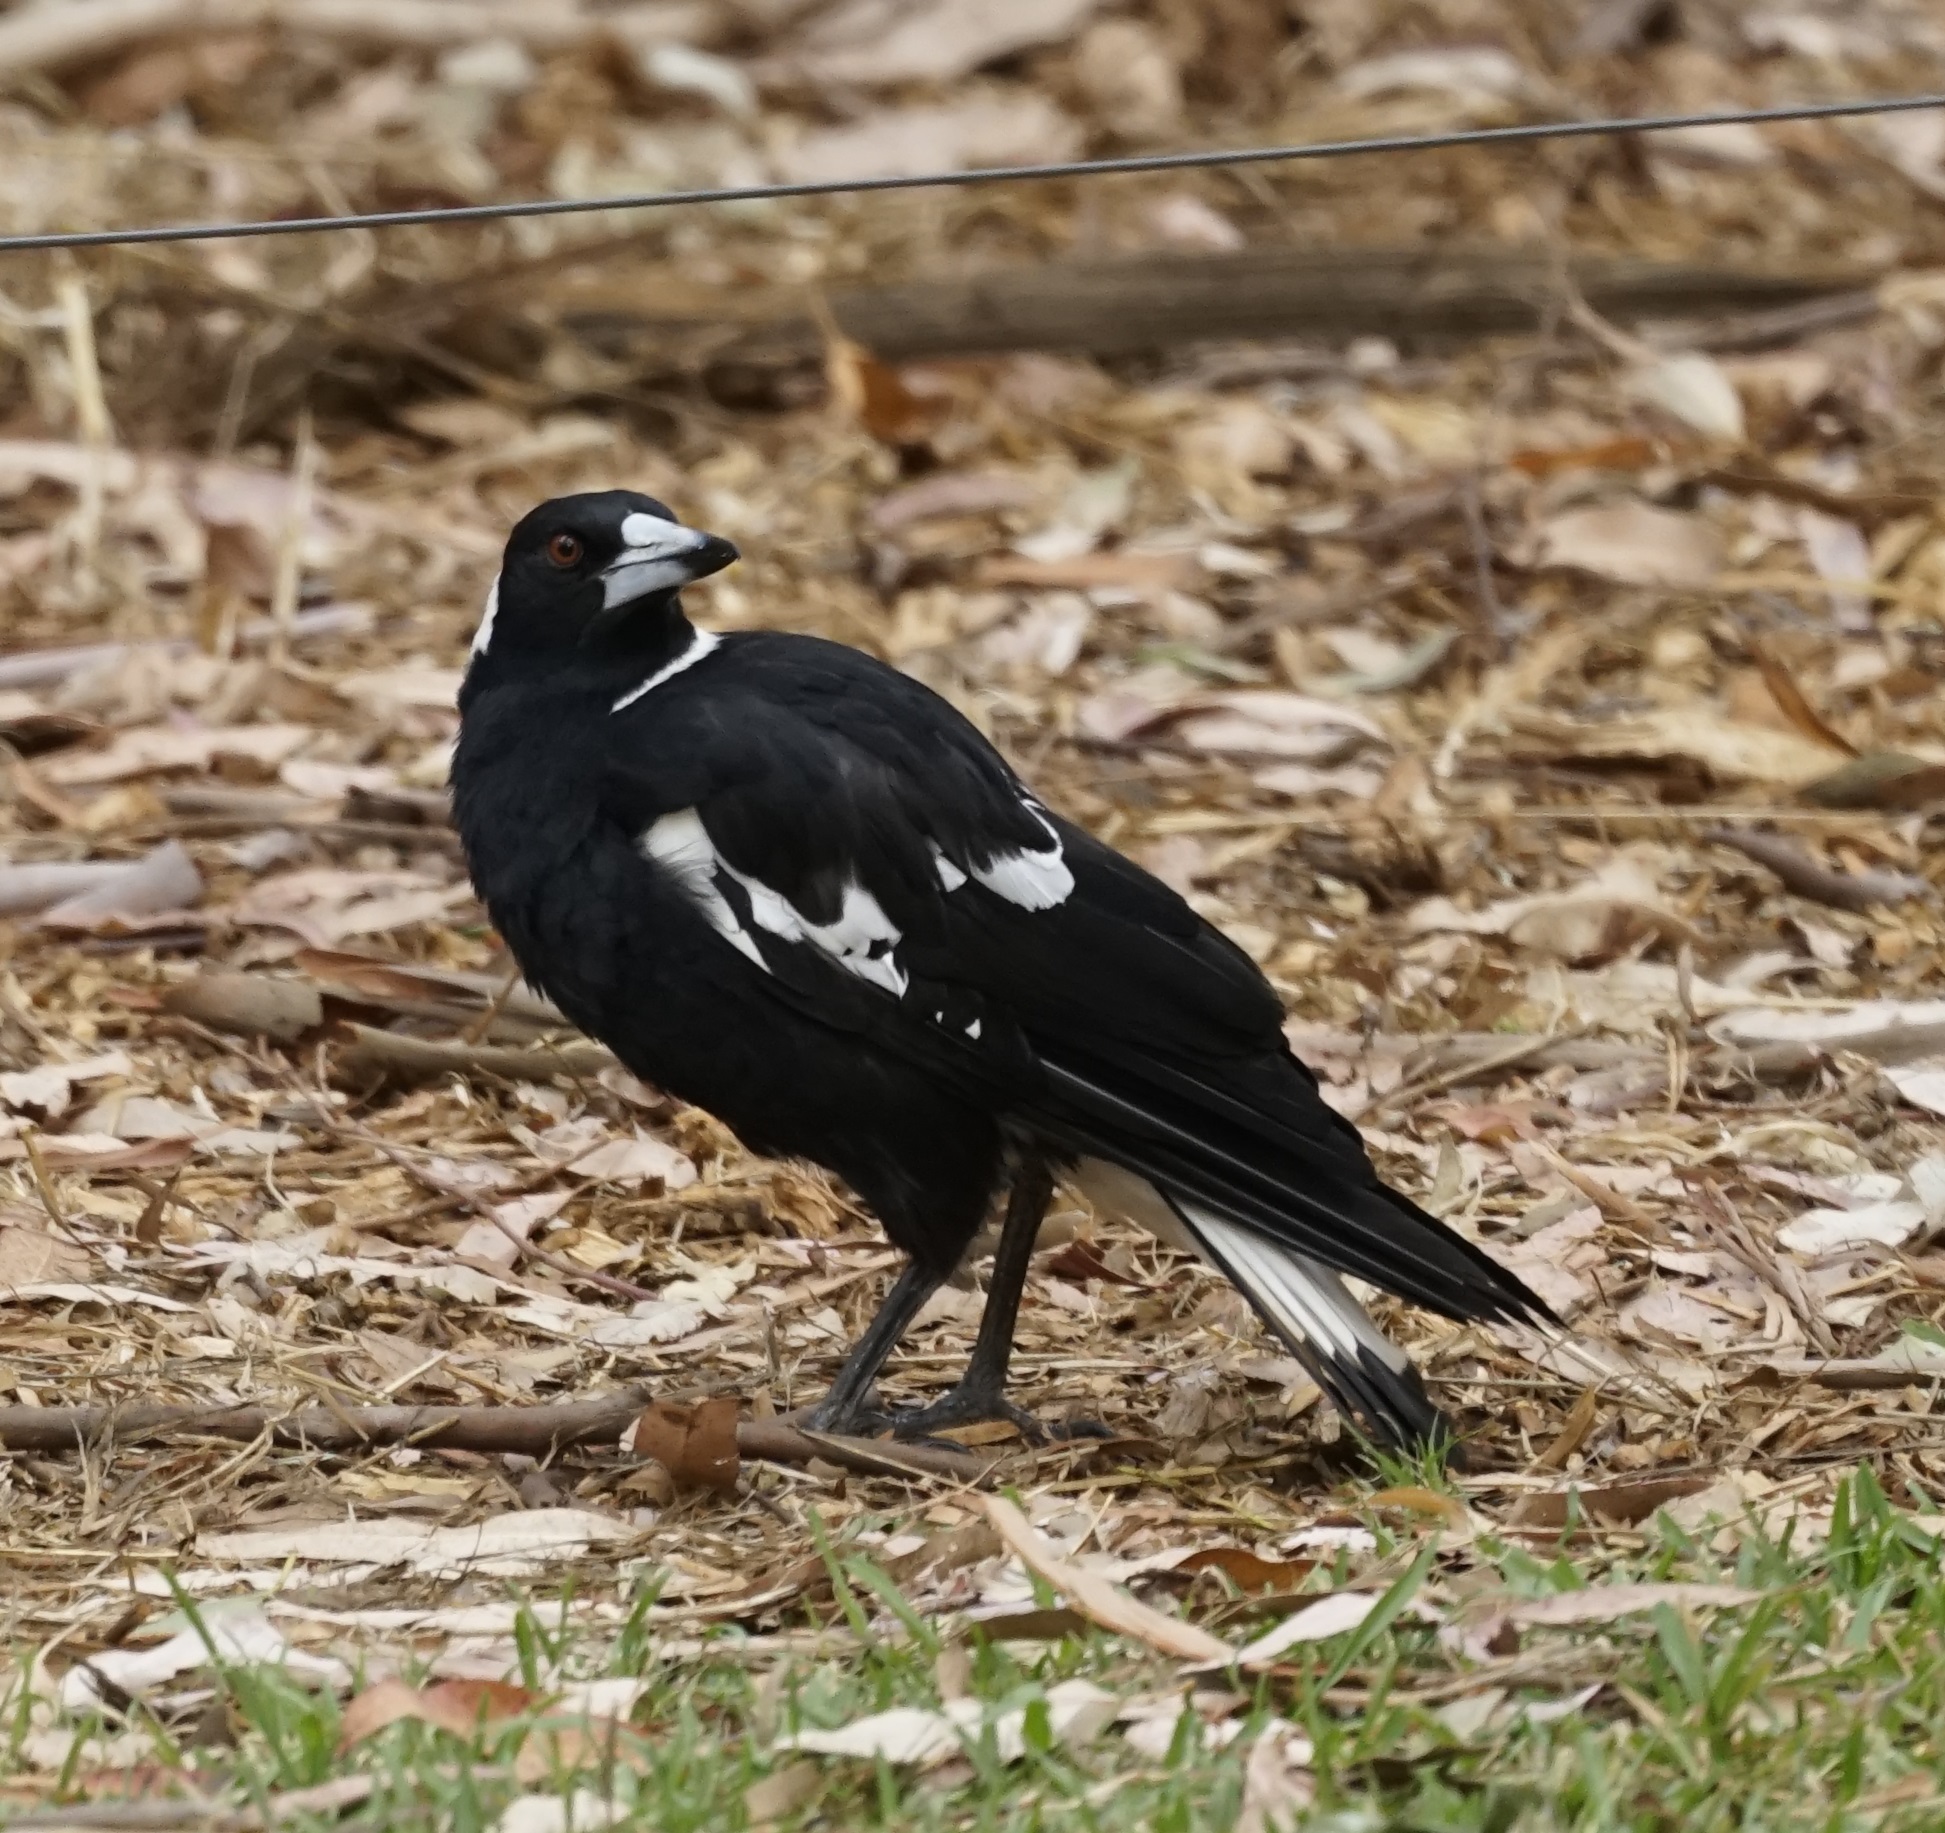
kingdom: Animalia
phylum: Chordata
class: Aves
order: Passeriformes
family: Cracticidae
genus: Gymnorhina
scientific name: Gymnorhina tibicen
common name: Australian magpie
